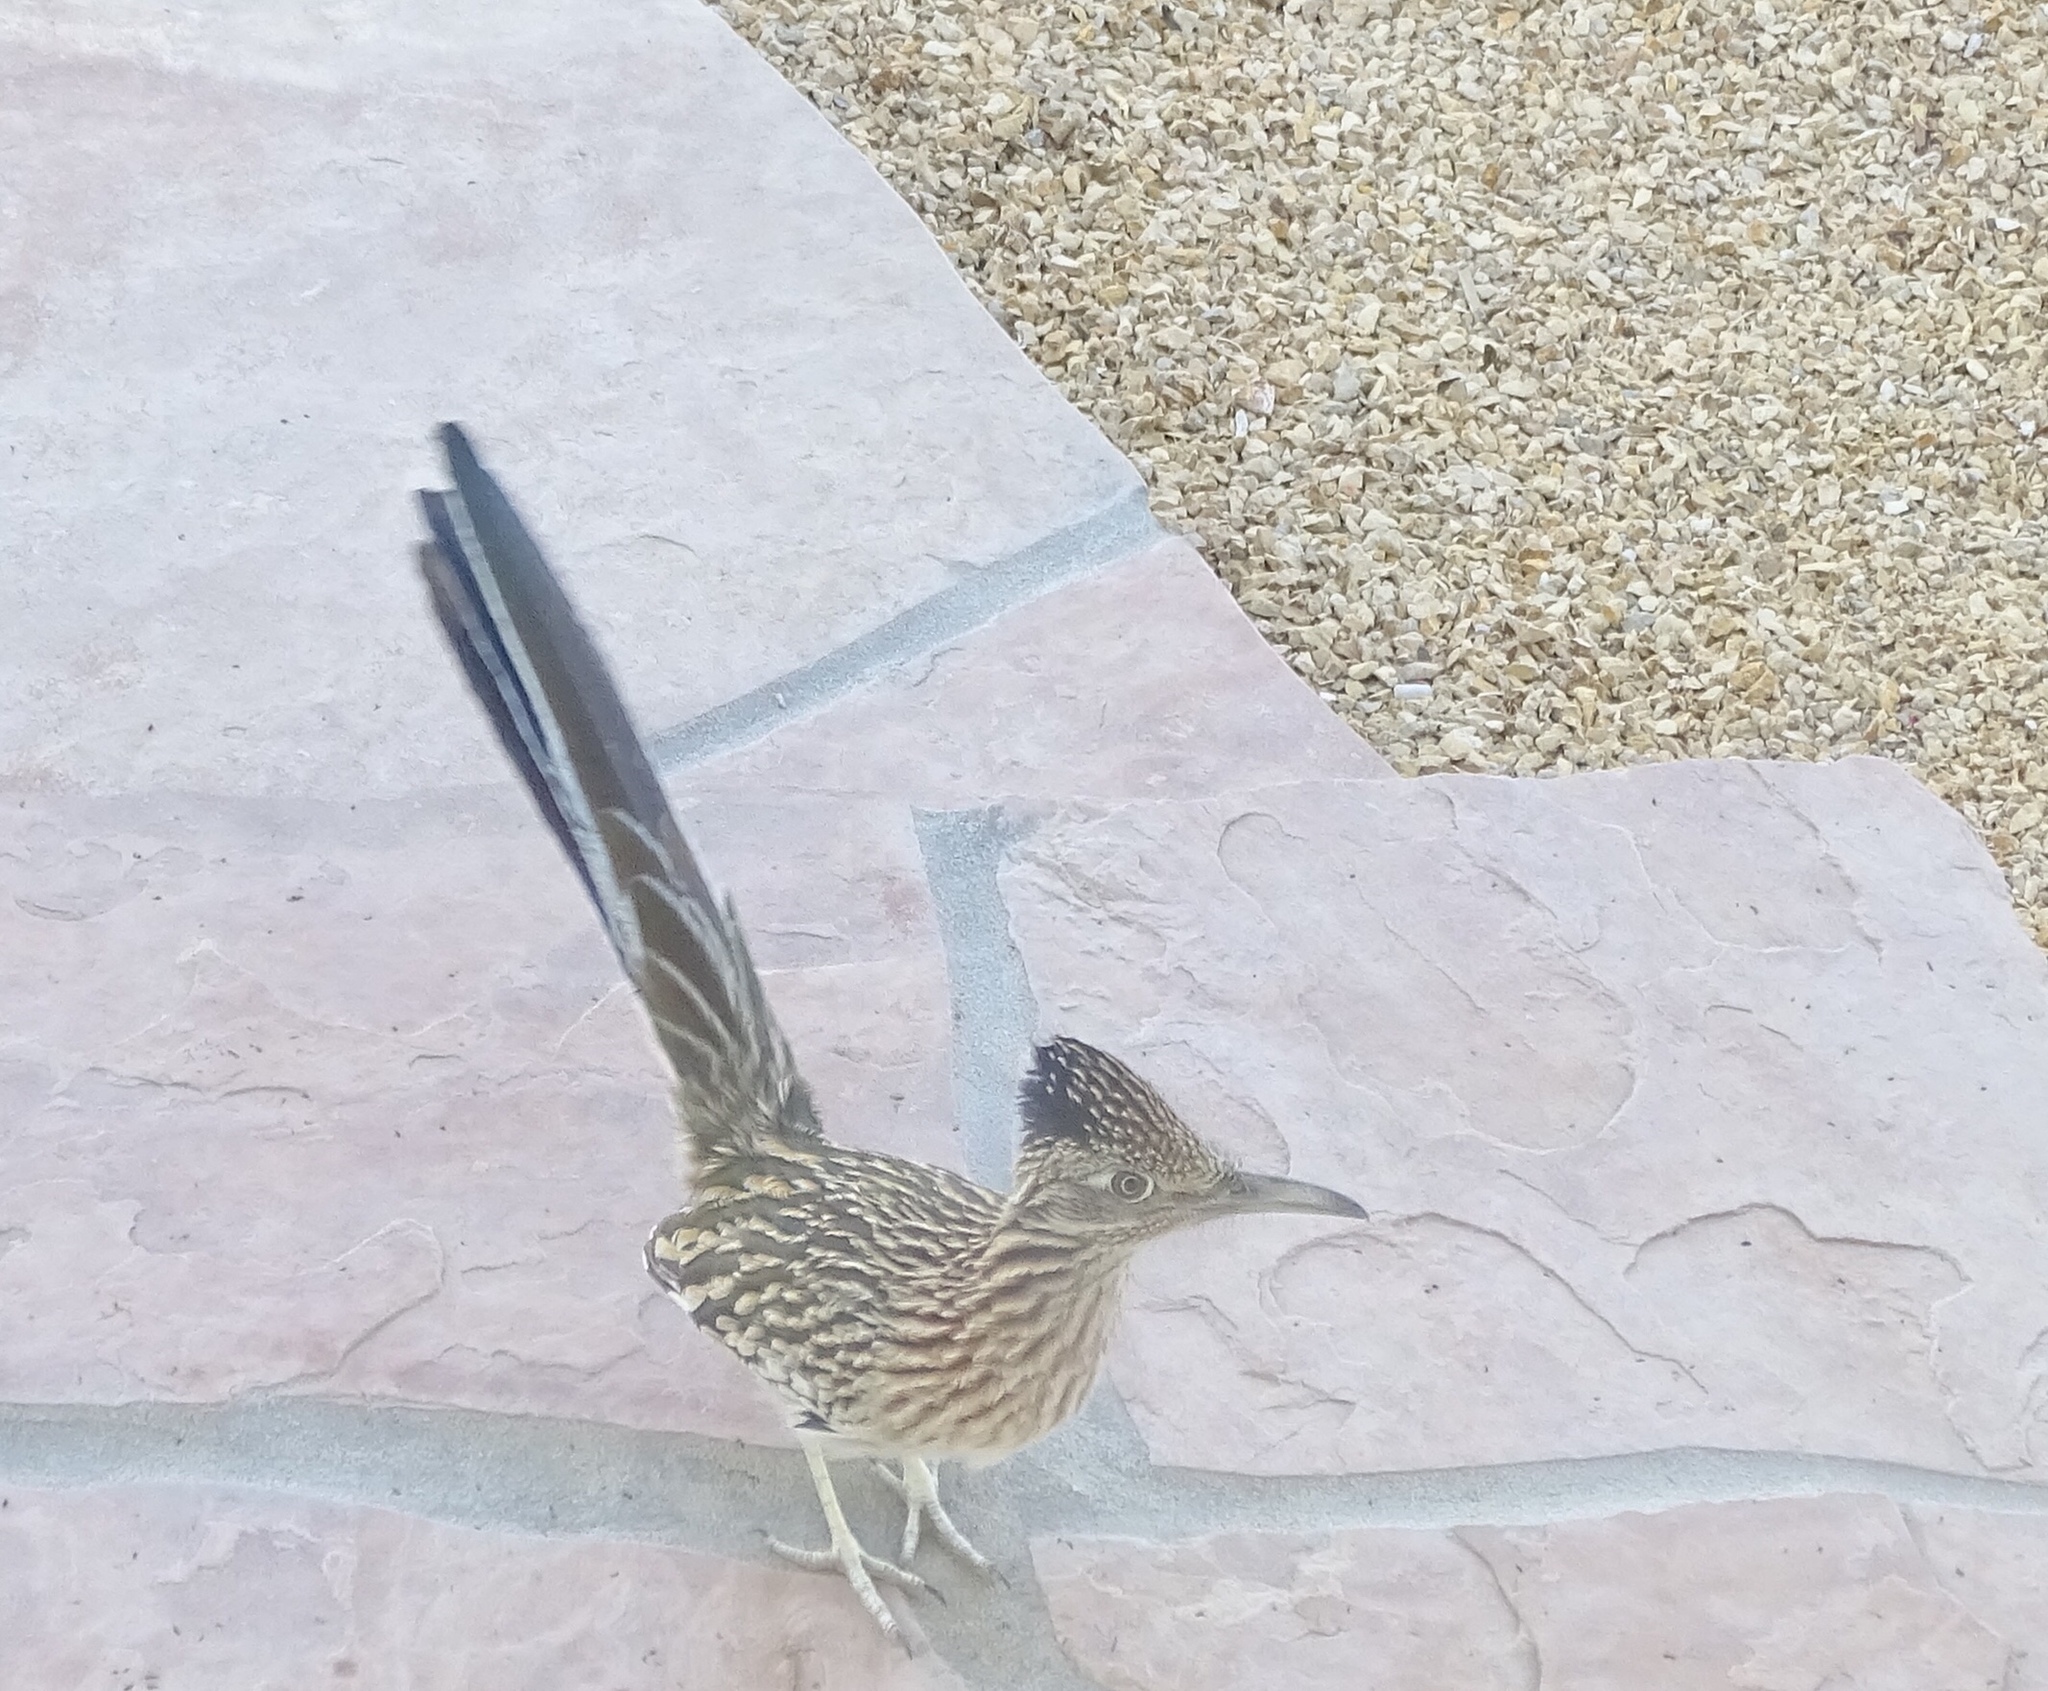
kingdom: Animalia
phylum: Chordata
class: Aves
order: Cuculiformes
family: Cuculidae
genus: Geococcyx
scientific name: Geococcyx californianus
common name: Greater roadrunner
